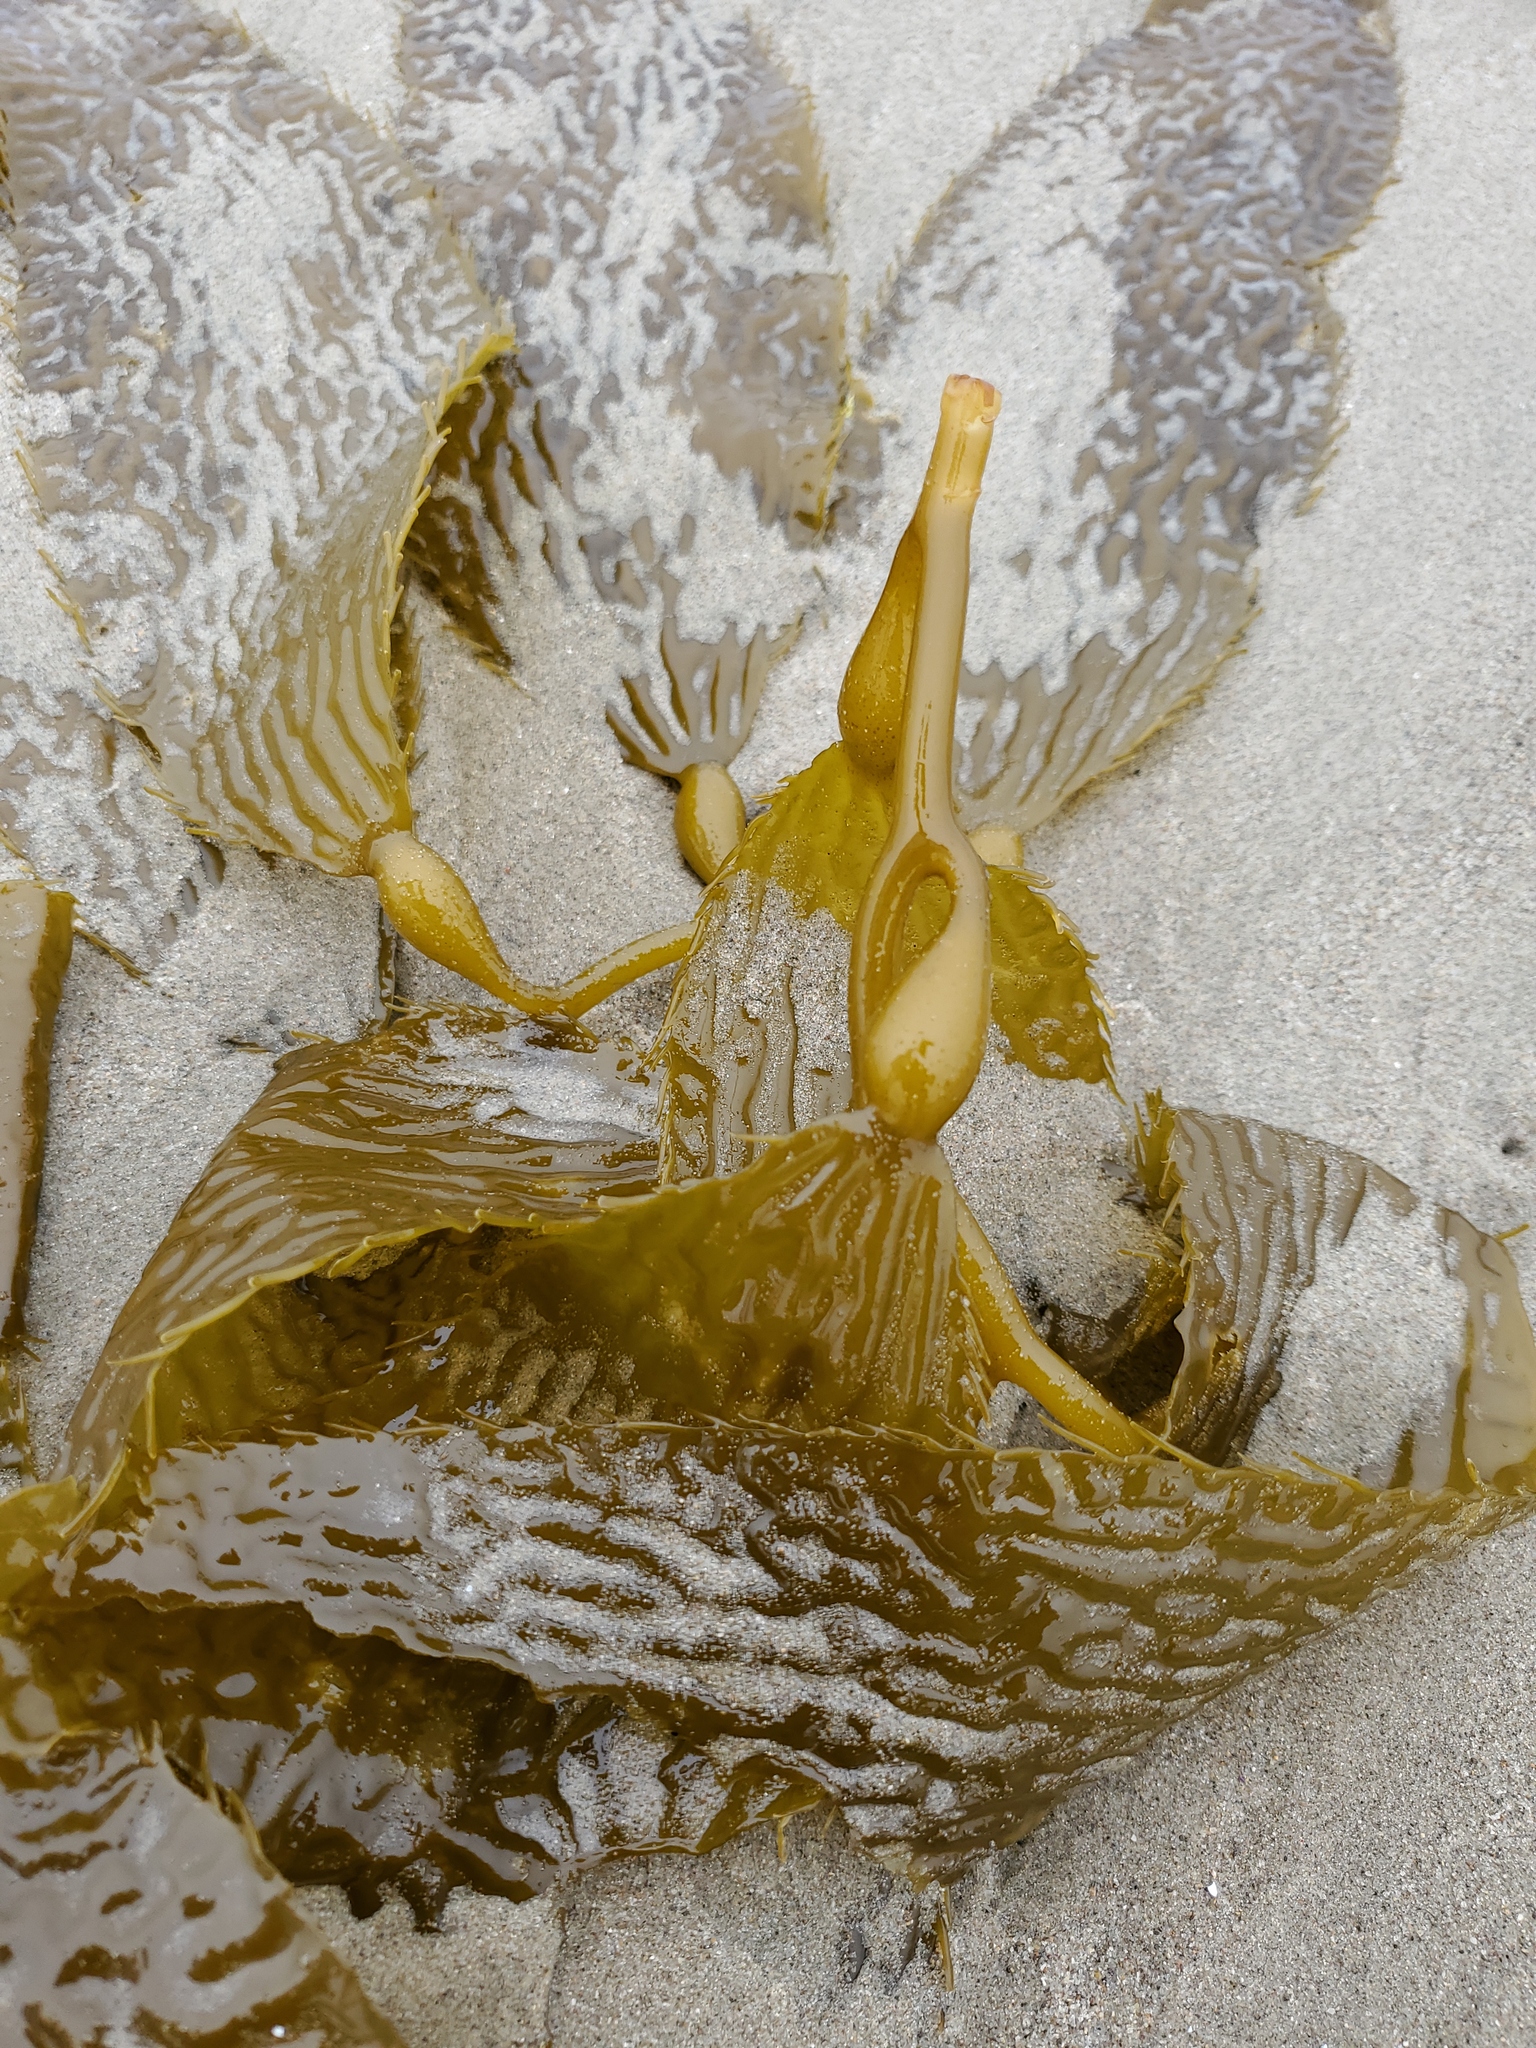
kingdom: Chromista
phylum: Ochrophyta
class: Phaeophyceae
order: Laminariales
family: Laminariaceae
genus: Macrocystis
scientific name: Macrocystis pyrifera
